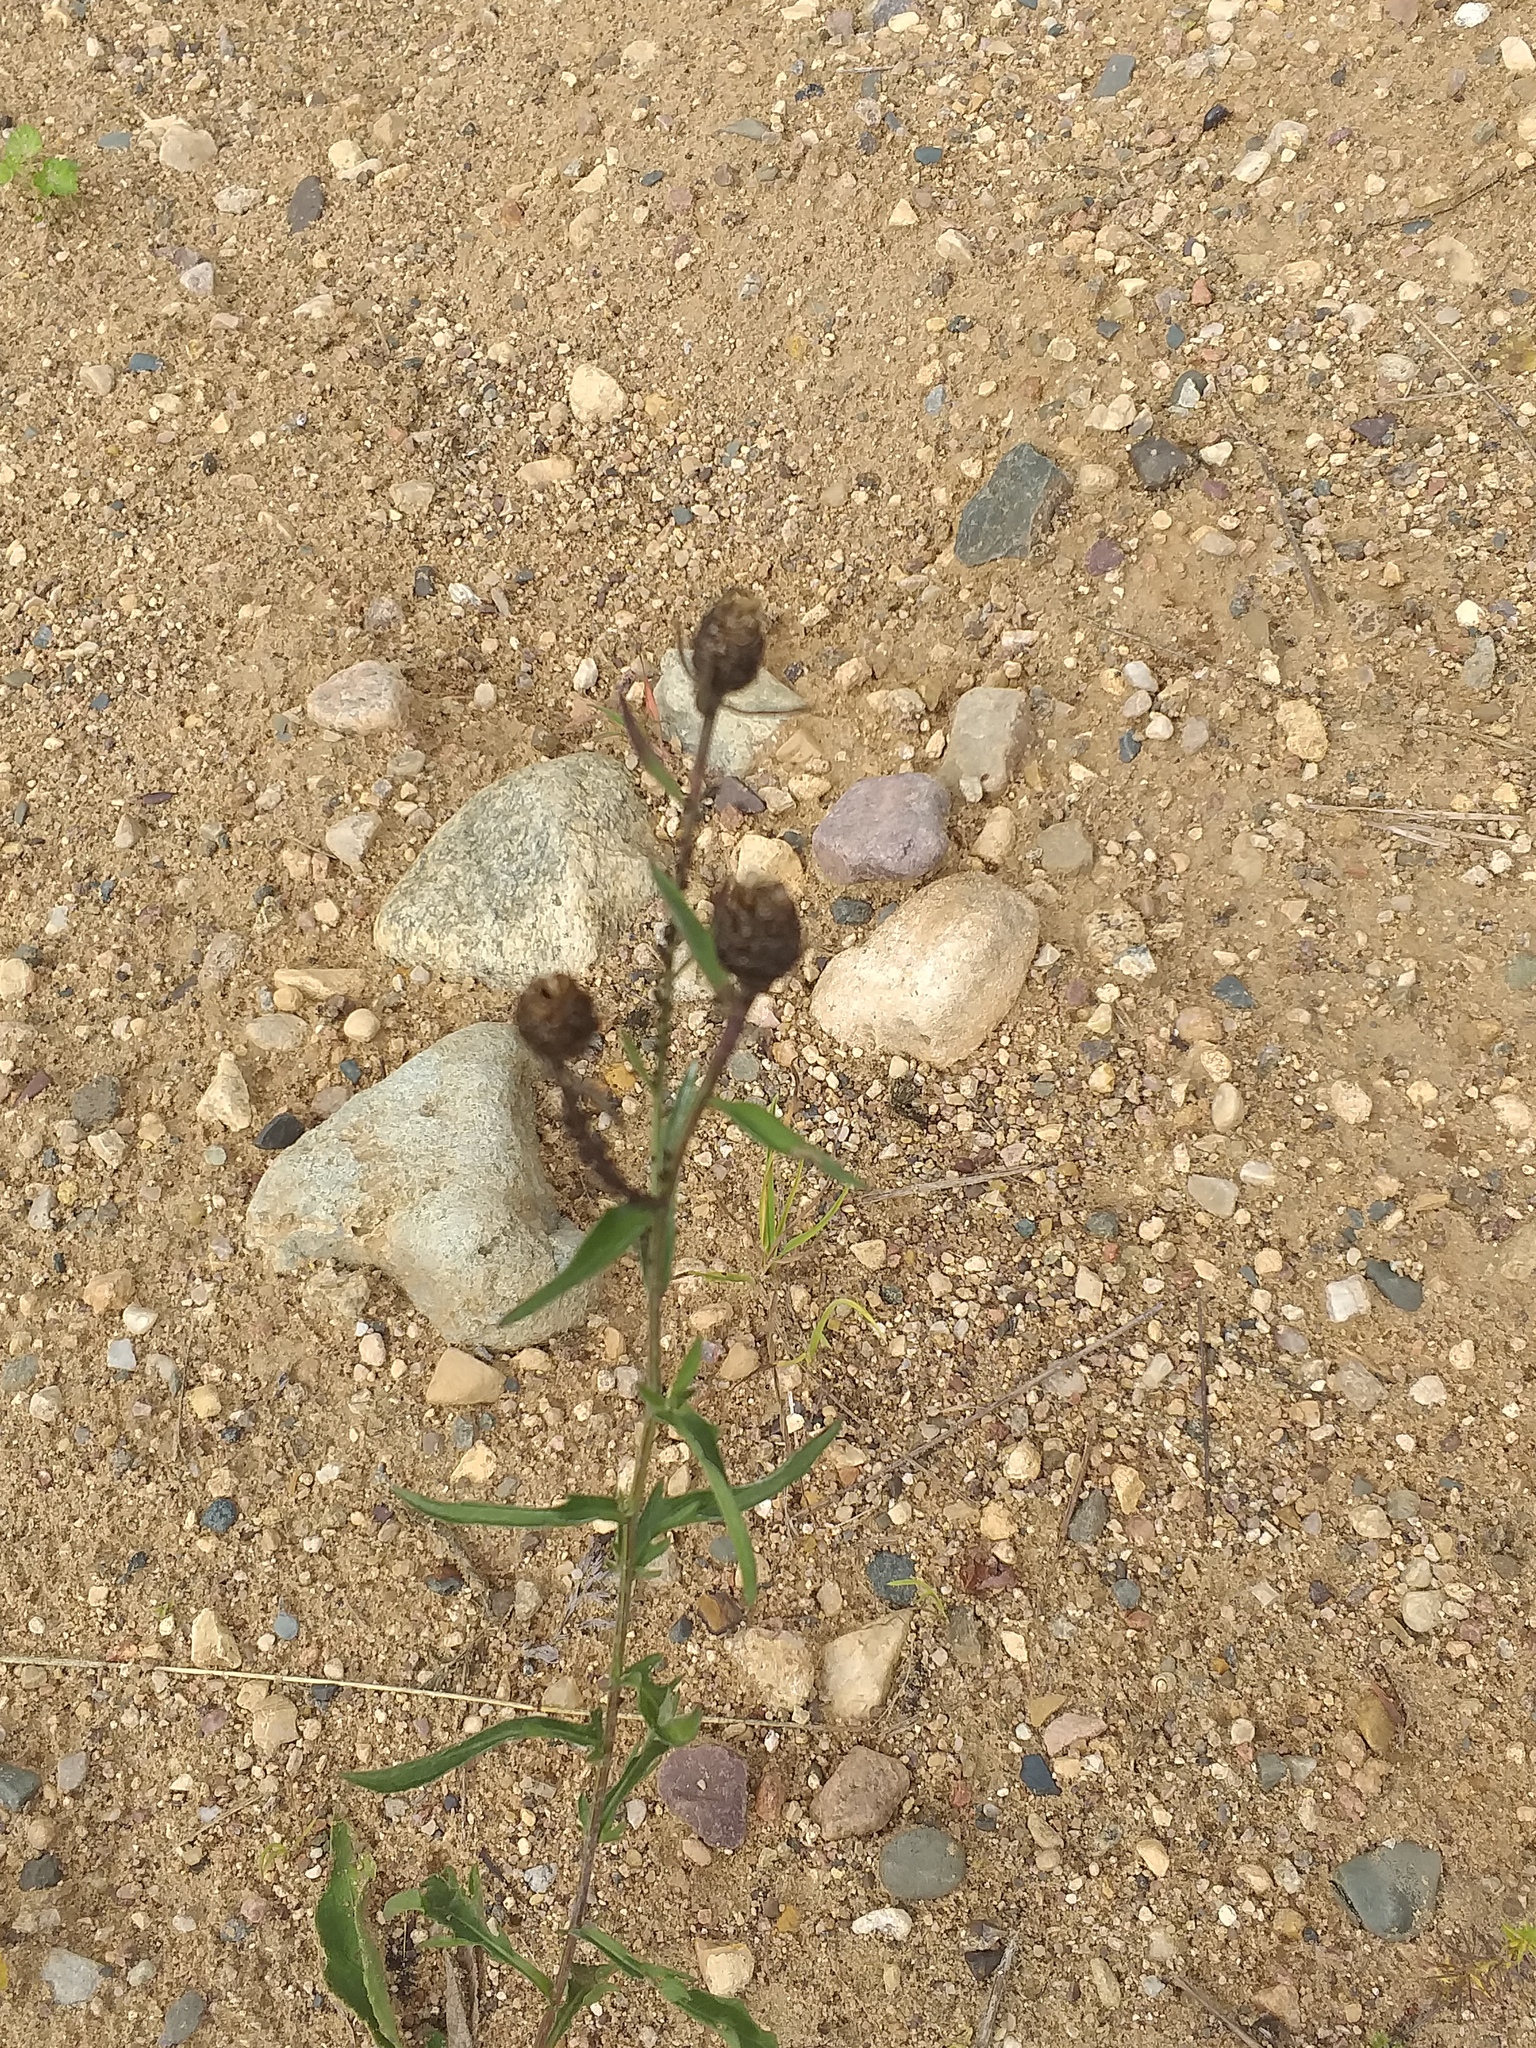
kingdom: Plantae
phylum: Tracheophyta
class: Magnoliopsida
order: Asterales
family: Asteraceae
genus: Centaurea
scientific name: Centaurea jacea
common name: Brown knapweed
